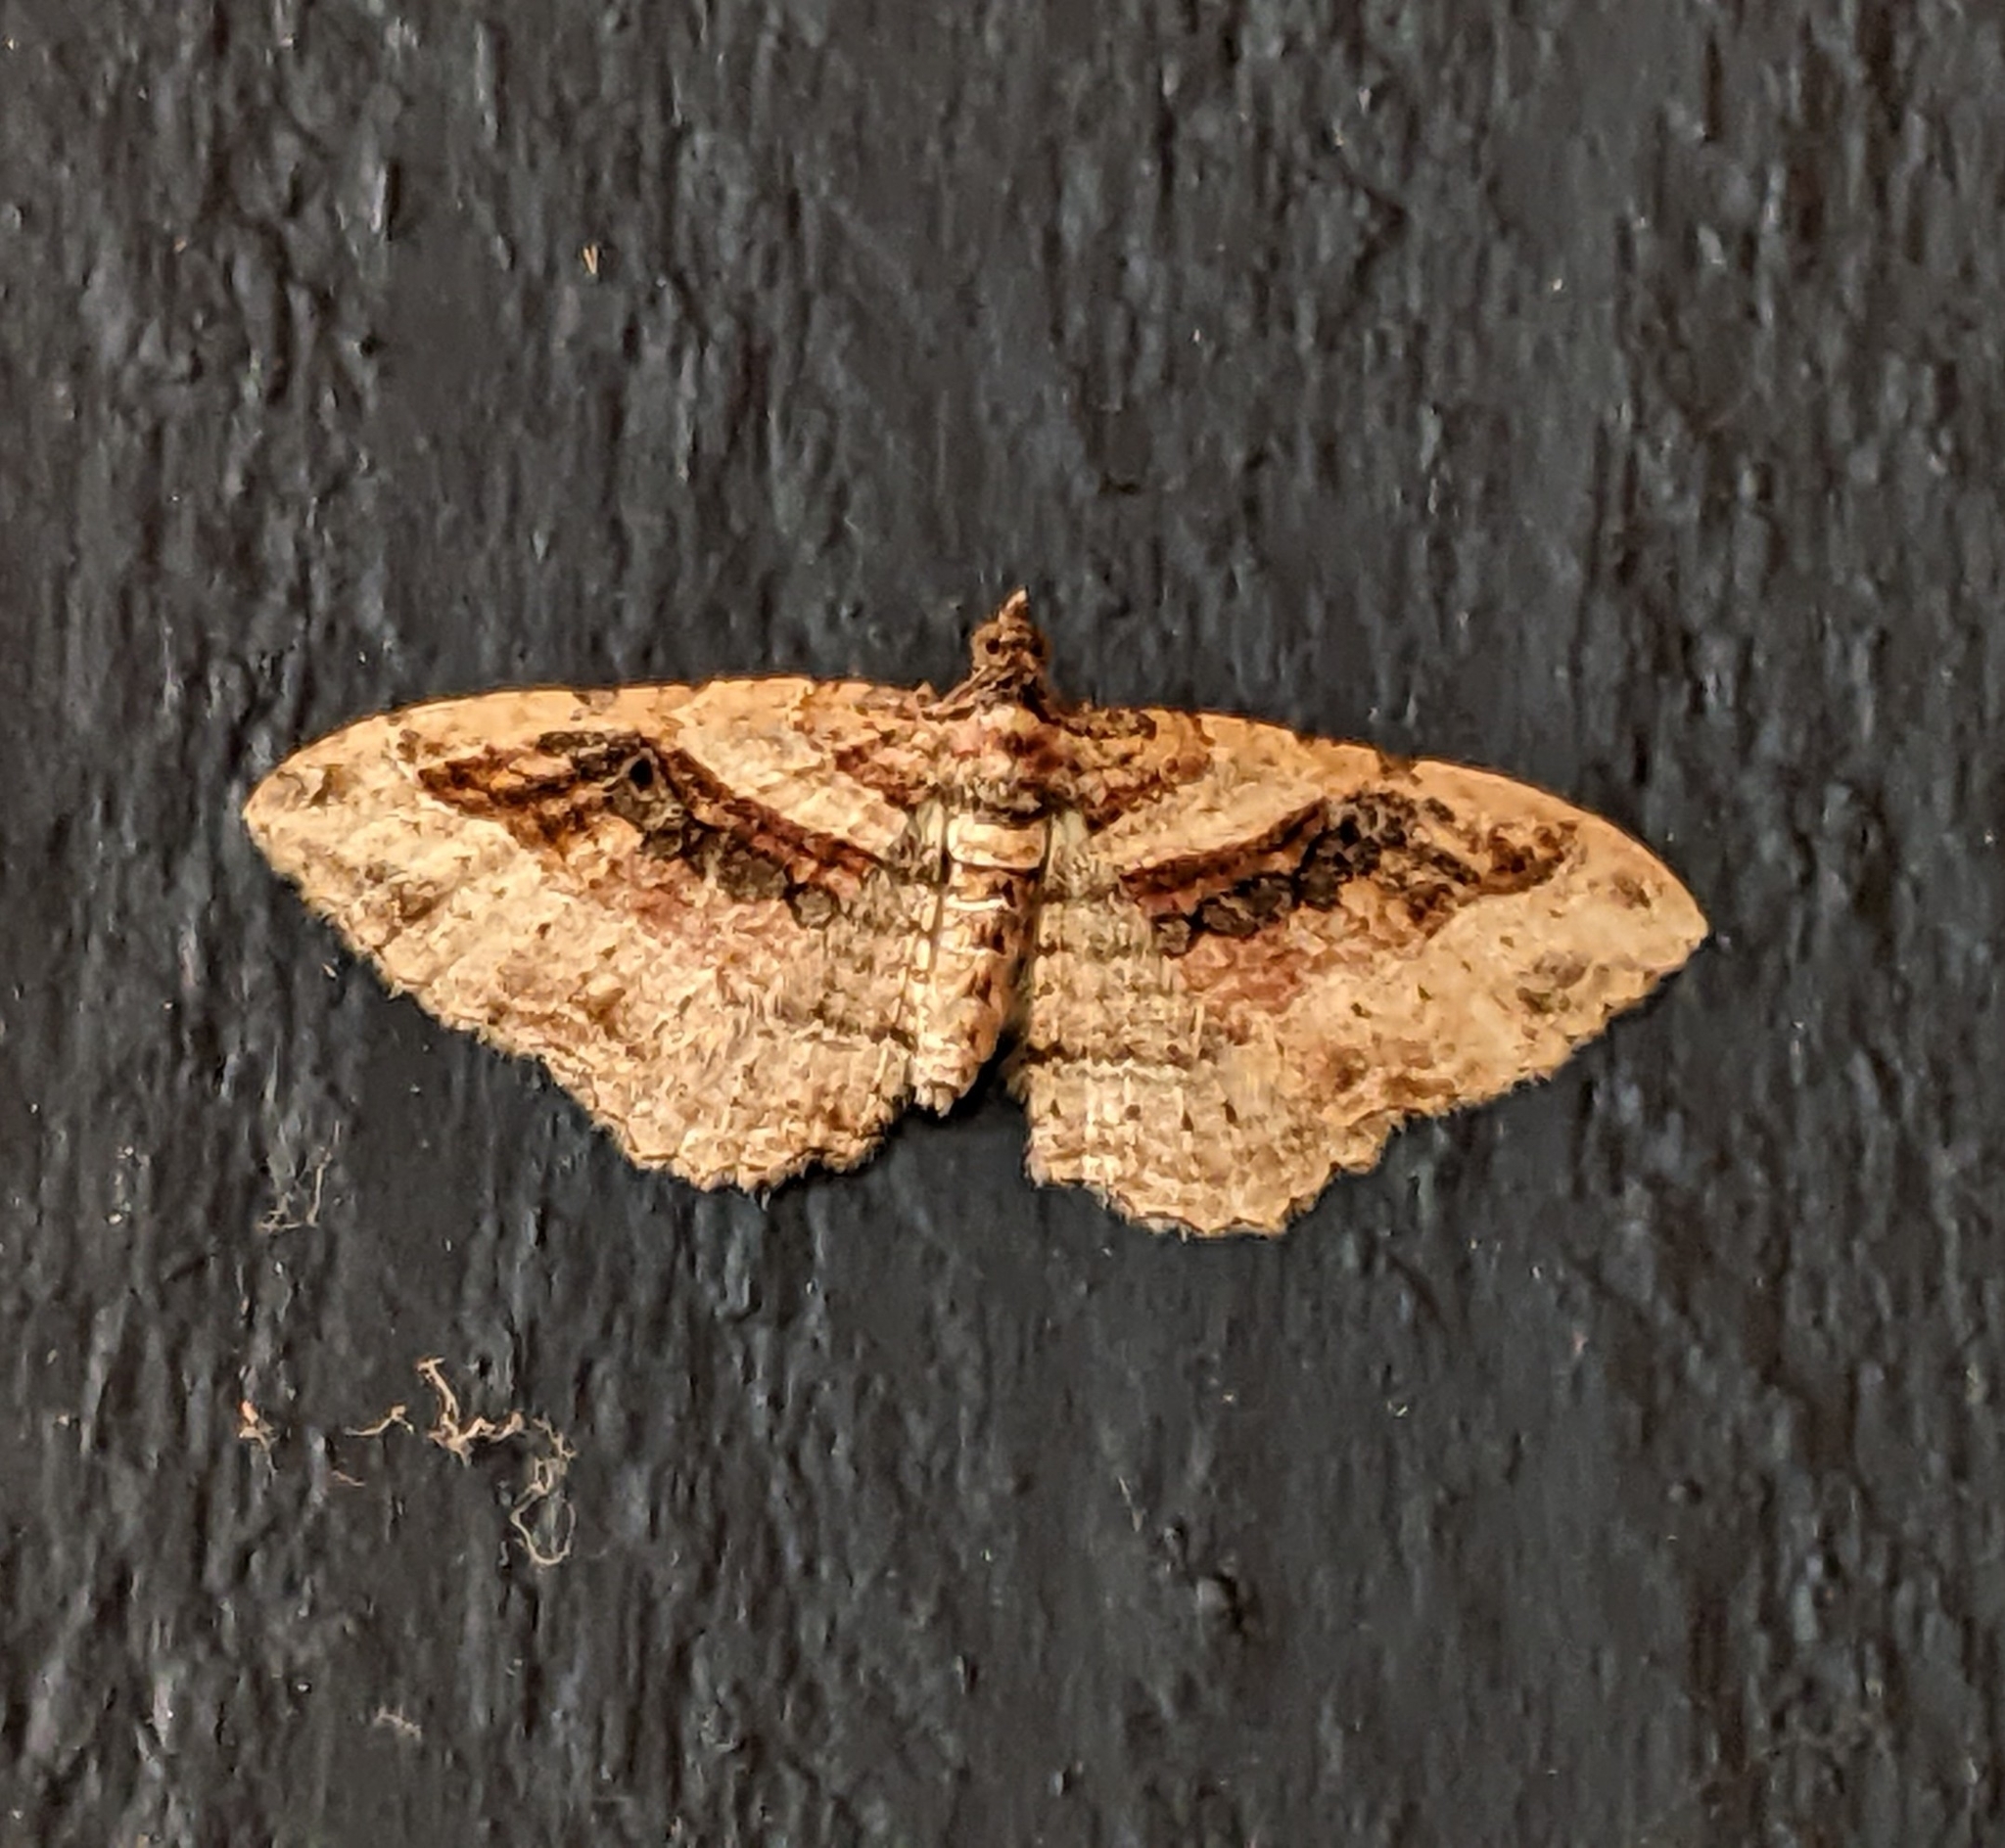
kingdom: Animalia
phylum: Arthropoda
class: Insecta
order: Lepidoptera
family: Geometridae
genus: Costaconvexa
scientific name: Costaconvexa centrostrigaria
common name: Bent-line carpet
